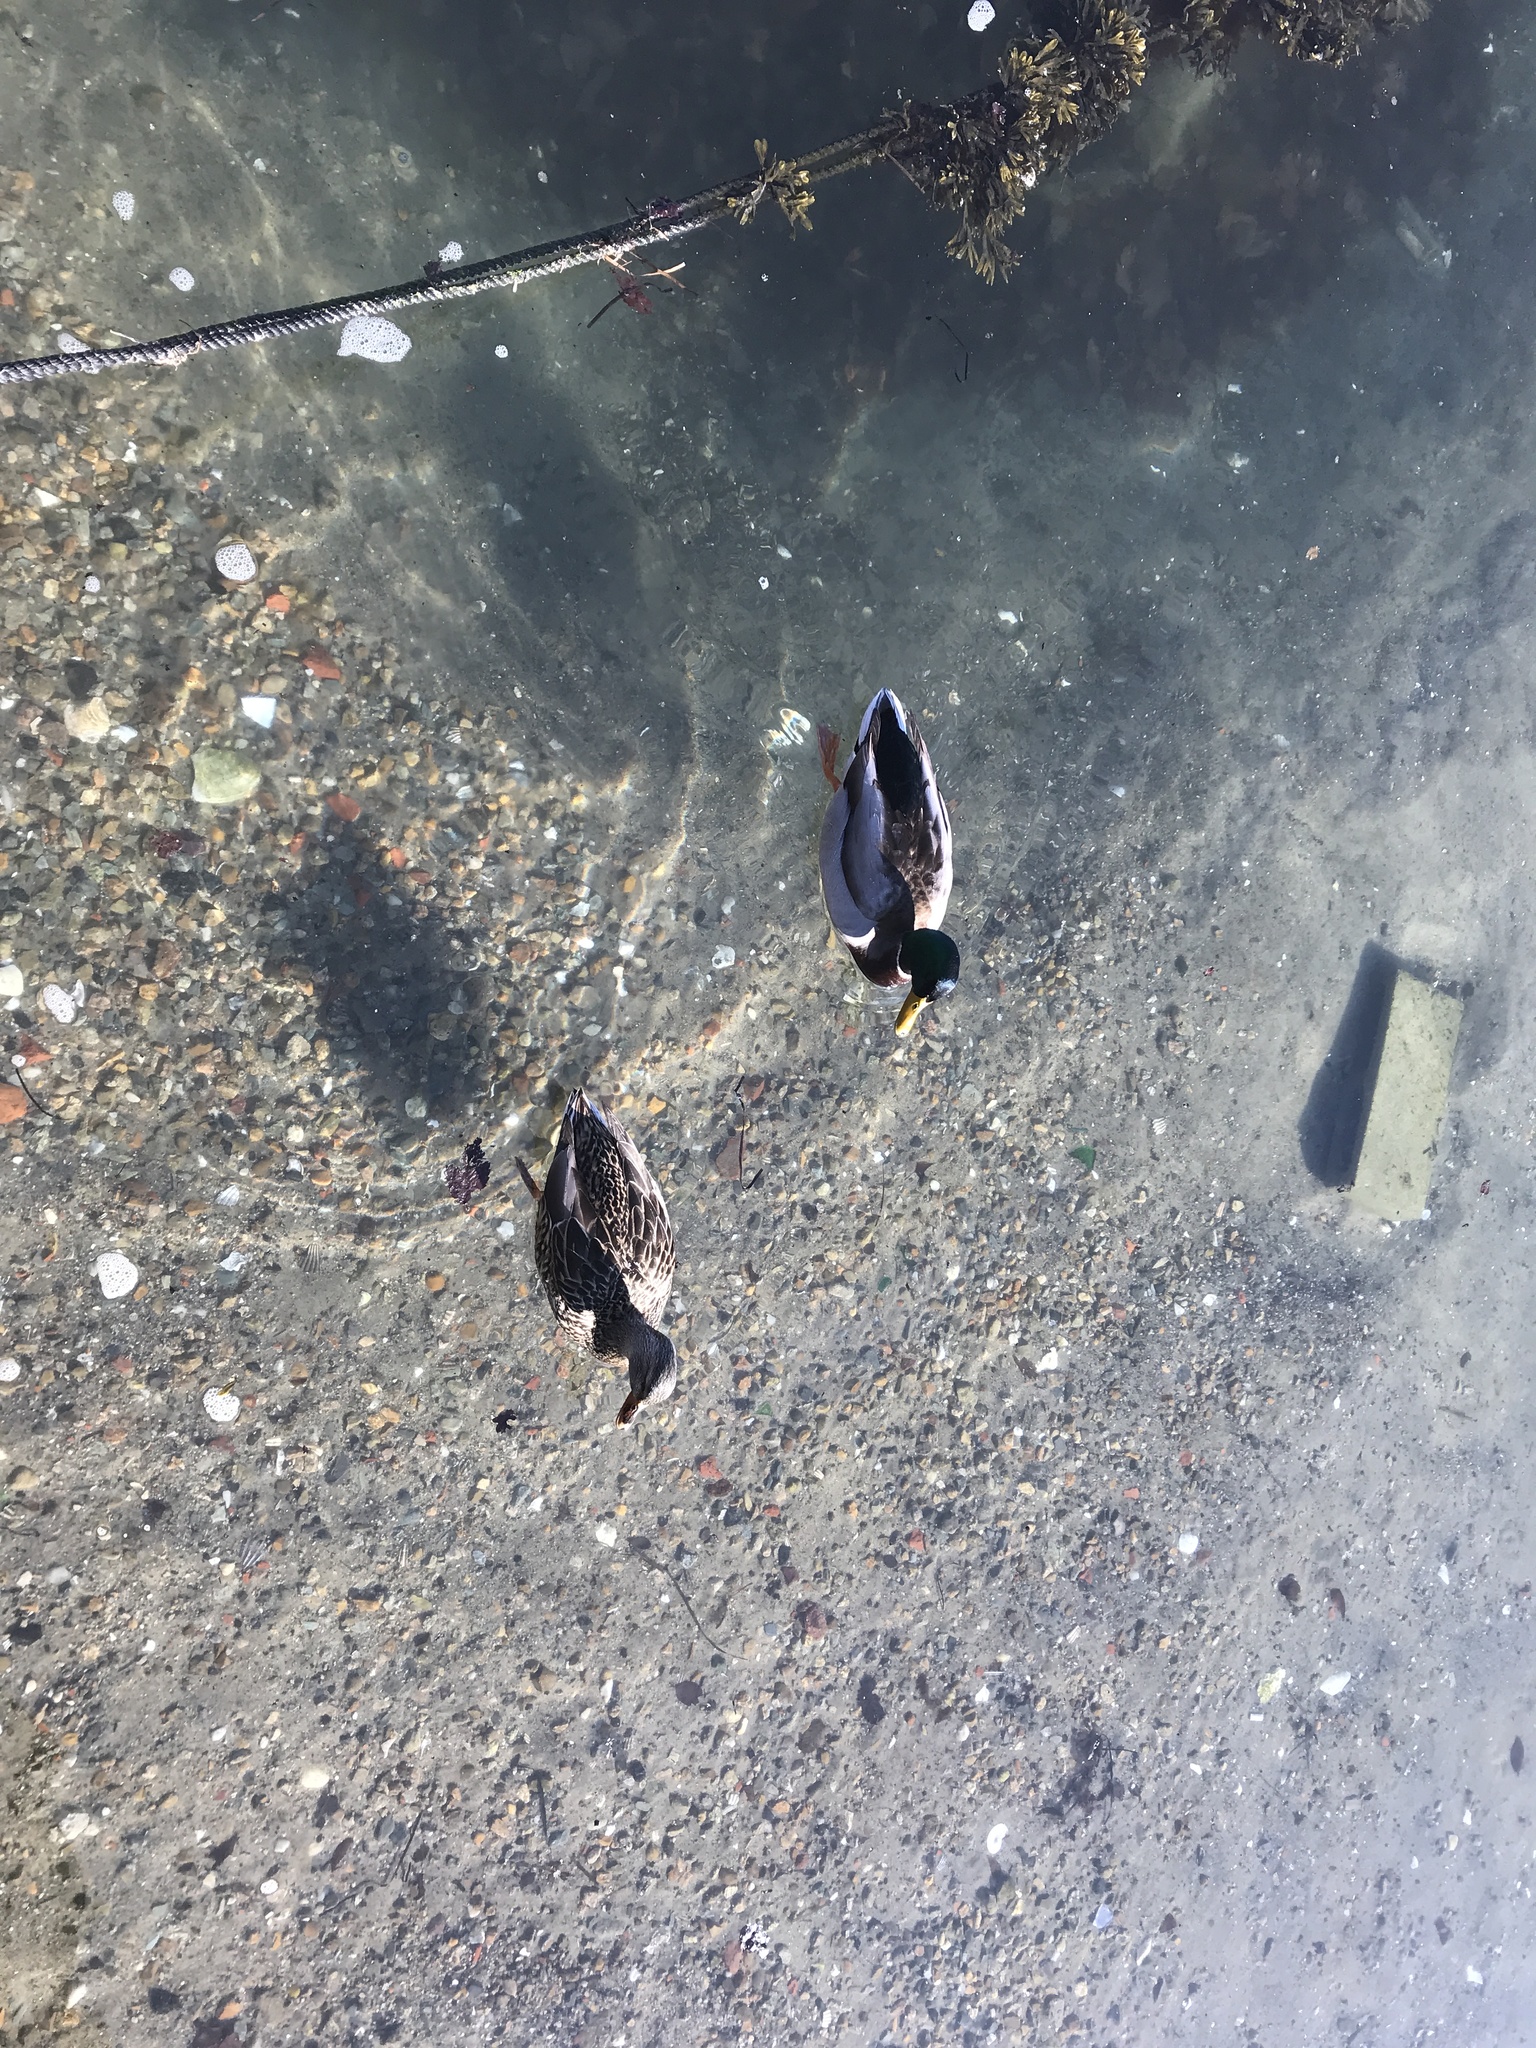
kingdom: Animalia
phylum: Chordata
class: Aves
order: Anseriformes
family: Anatidae
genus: Anas
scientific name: Anas platyrhynchos
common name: Mallard
